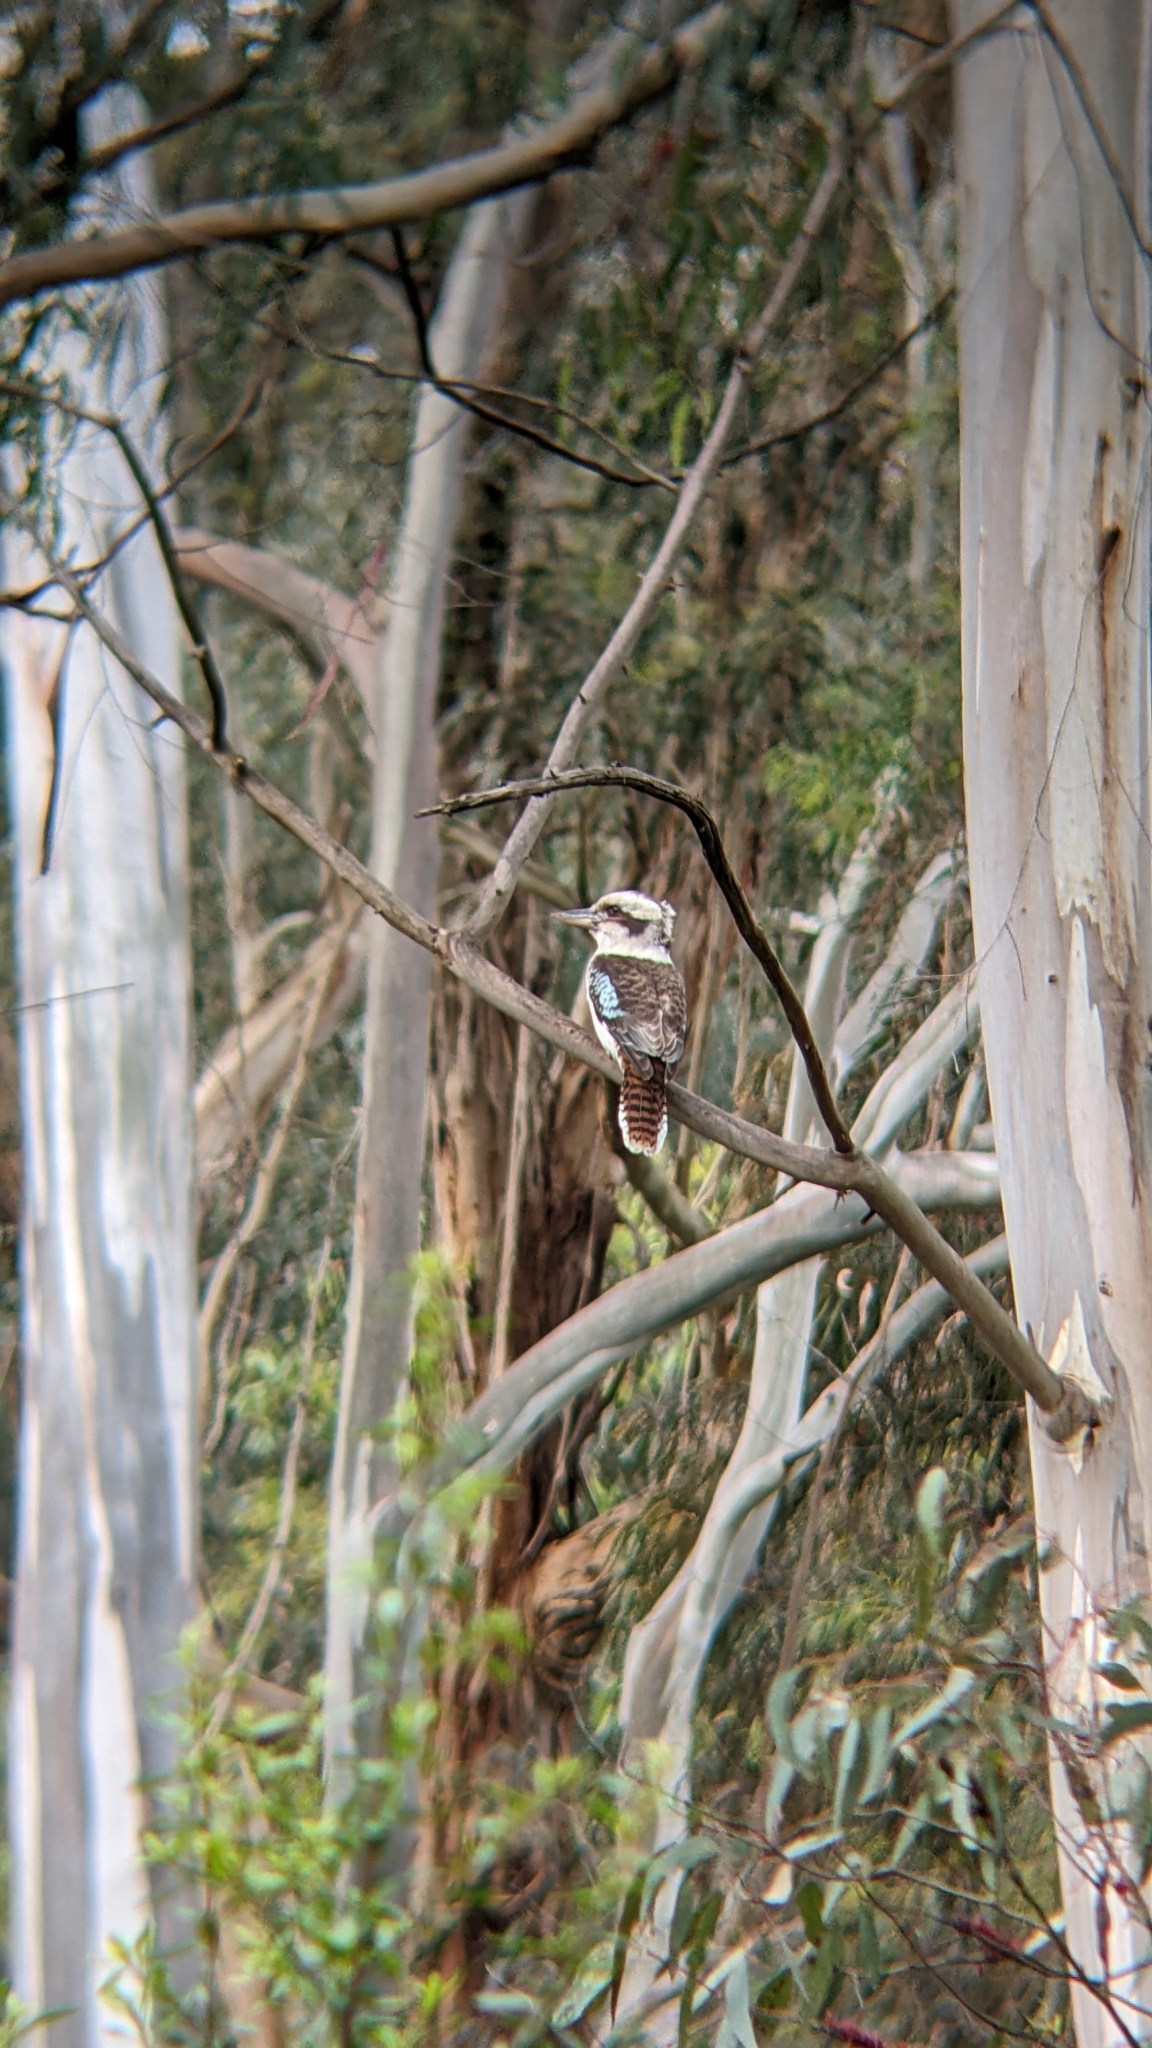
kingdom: Animalia
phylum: Chordata
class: Aves
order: Coraciiformes
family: Alcedinidae
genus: Dacelo
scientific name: Dacelo novaeguineae
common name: Laughing kookaburra
